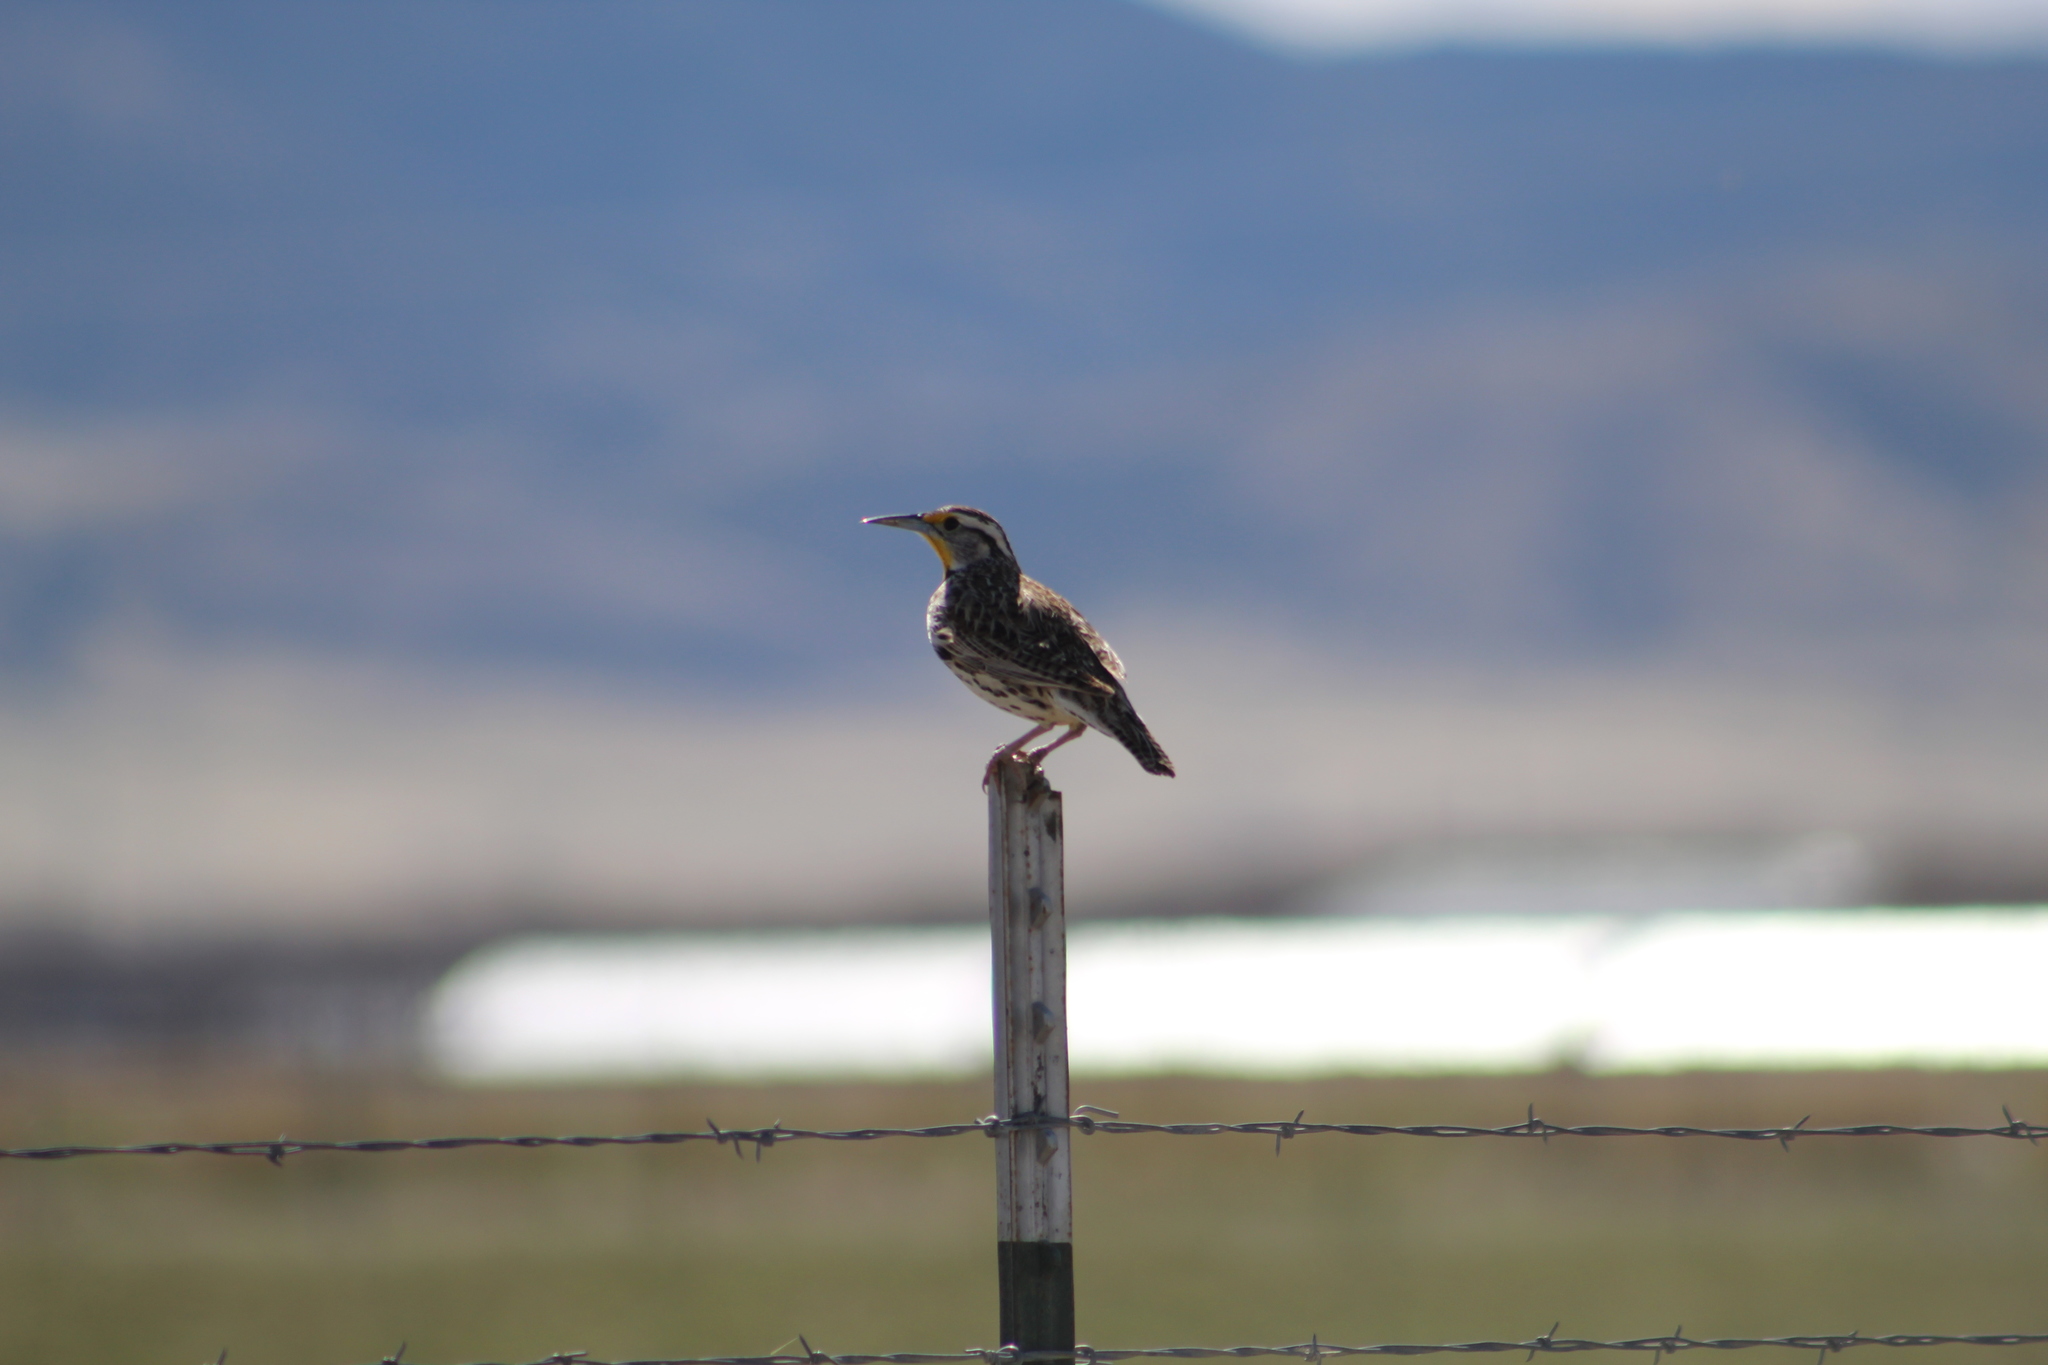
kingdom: Animalia
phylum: Chordata
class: Aves
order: Passeriformes
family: Icteridae
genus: Sturnella
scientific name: Sturnella neglecta
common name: Western meadowlark
